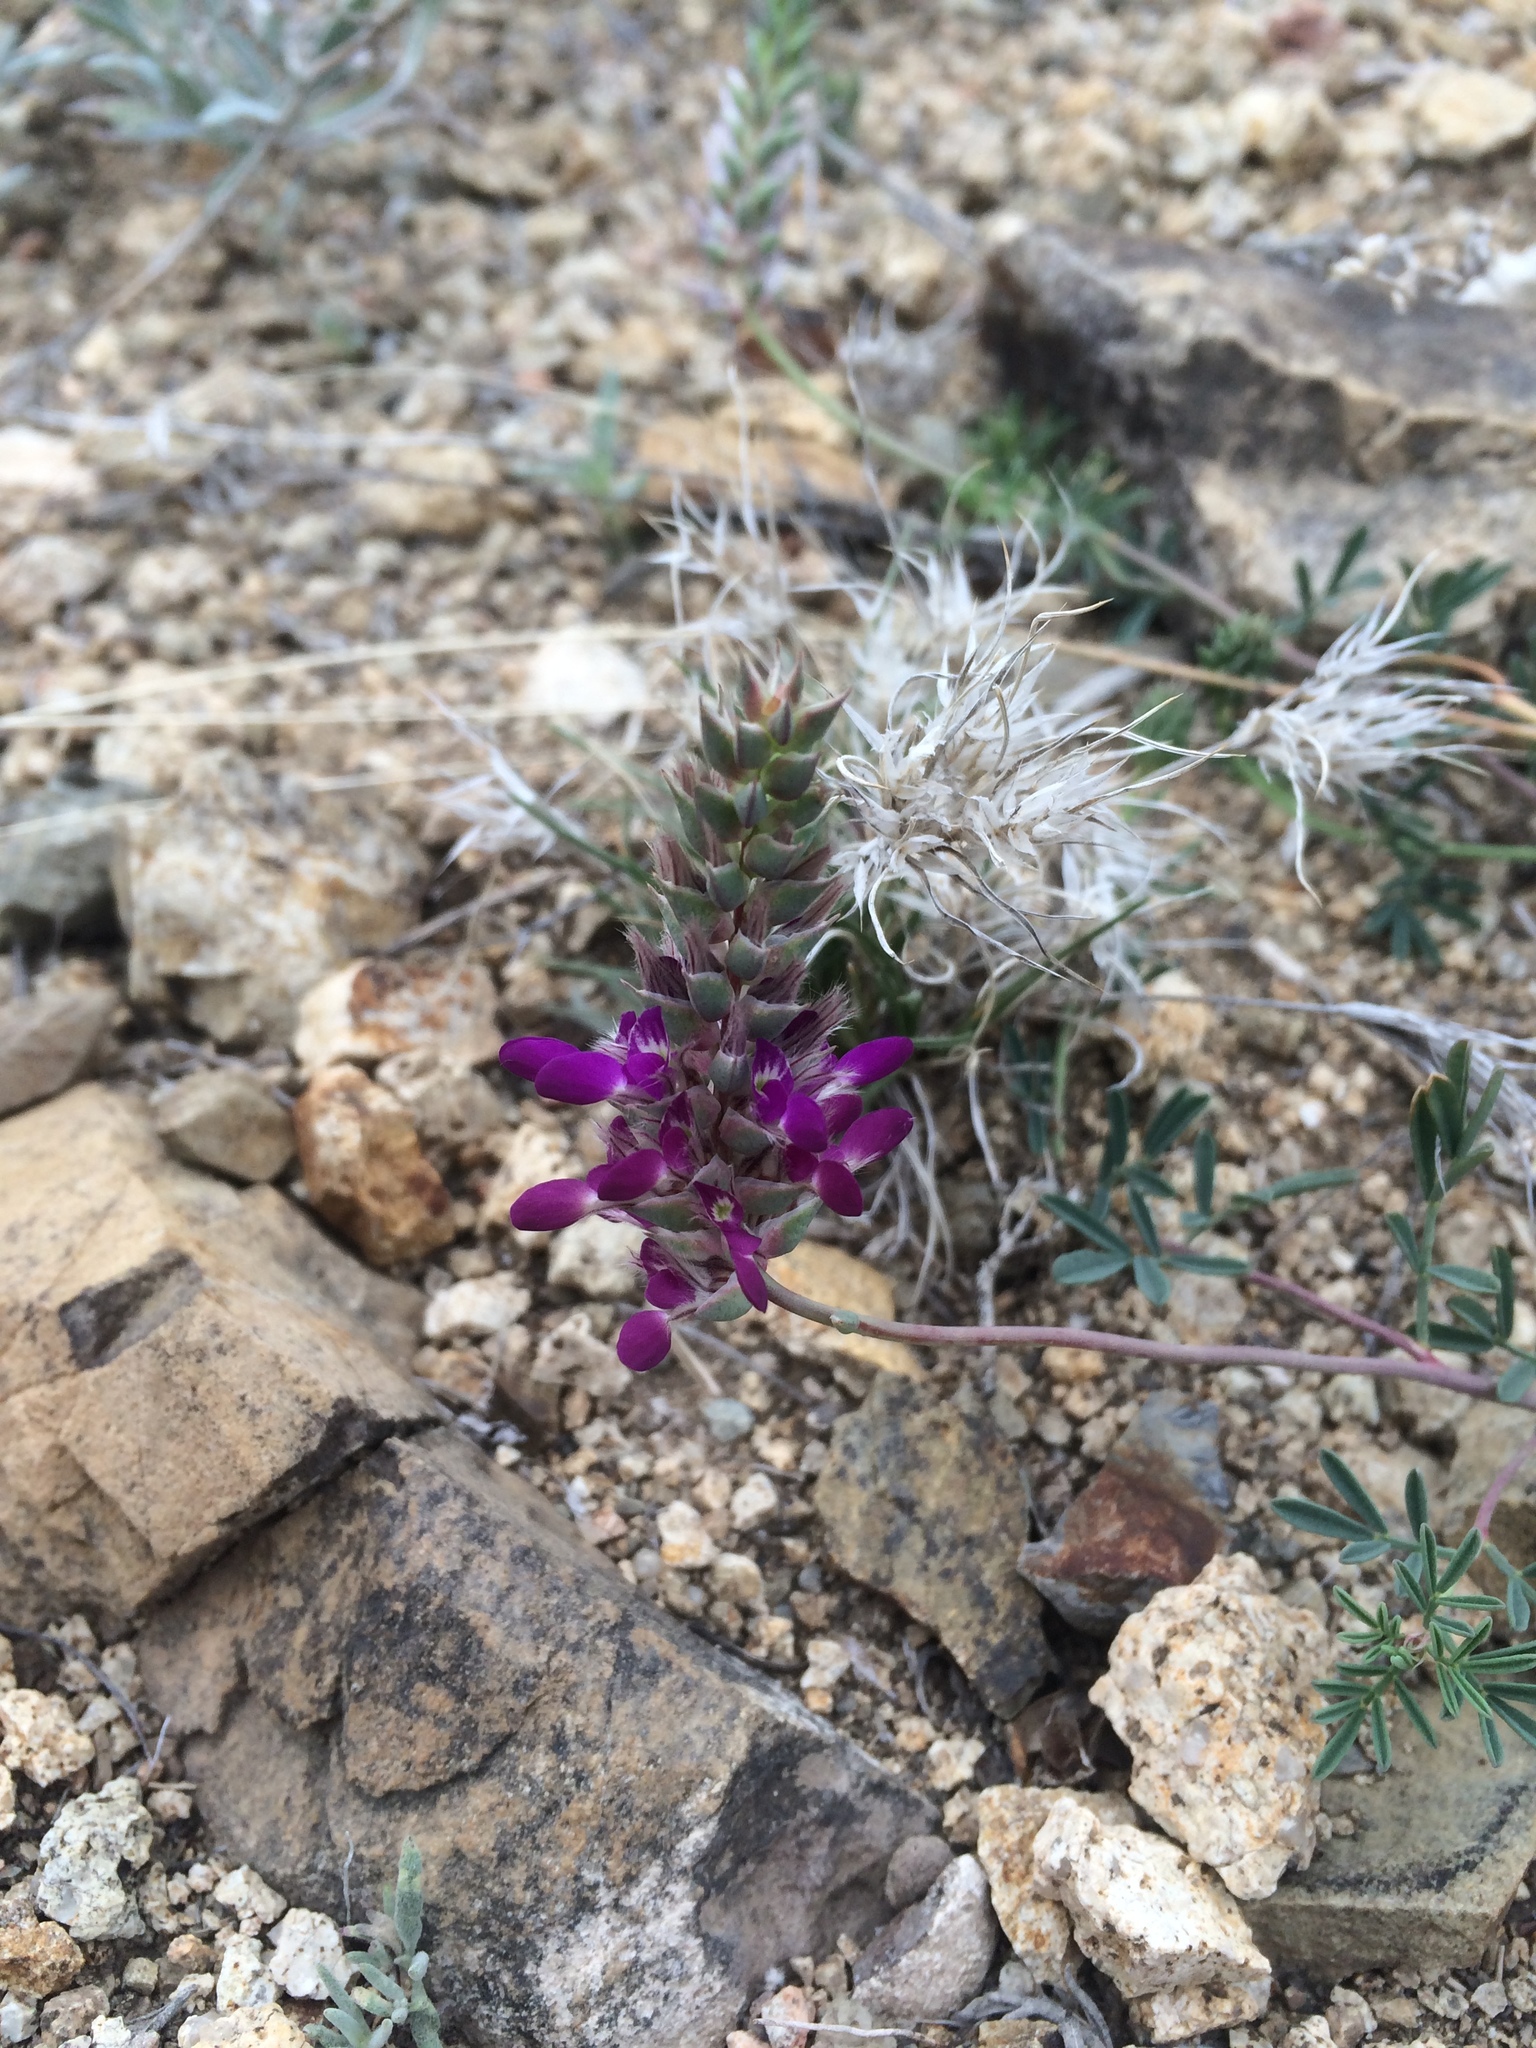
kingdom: Plantae
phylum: Tracheophyta
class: Magnoliopsida
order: Fabales
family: Fabaceae
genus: Dalea
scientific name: Dalea pogonathera
